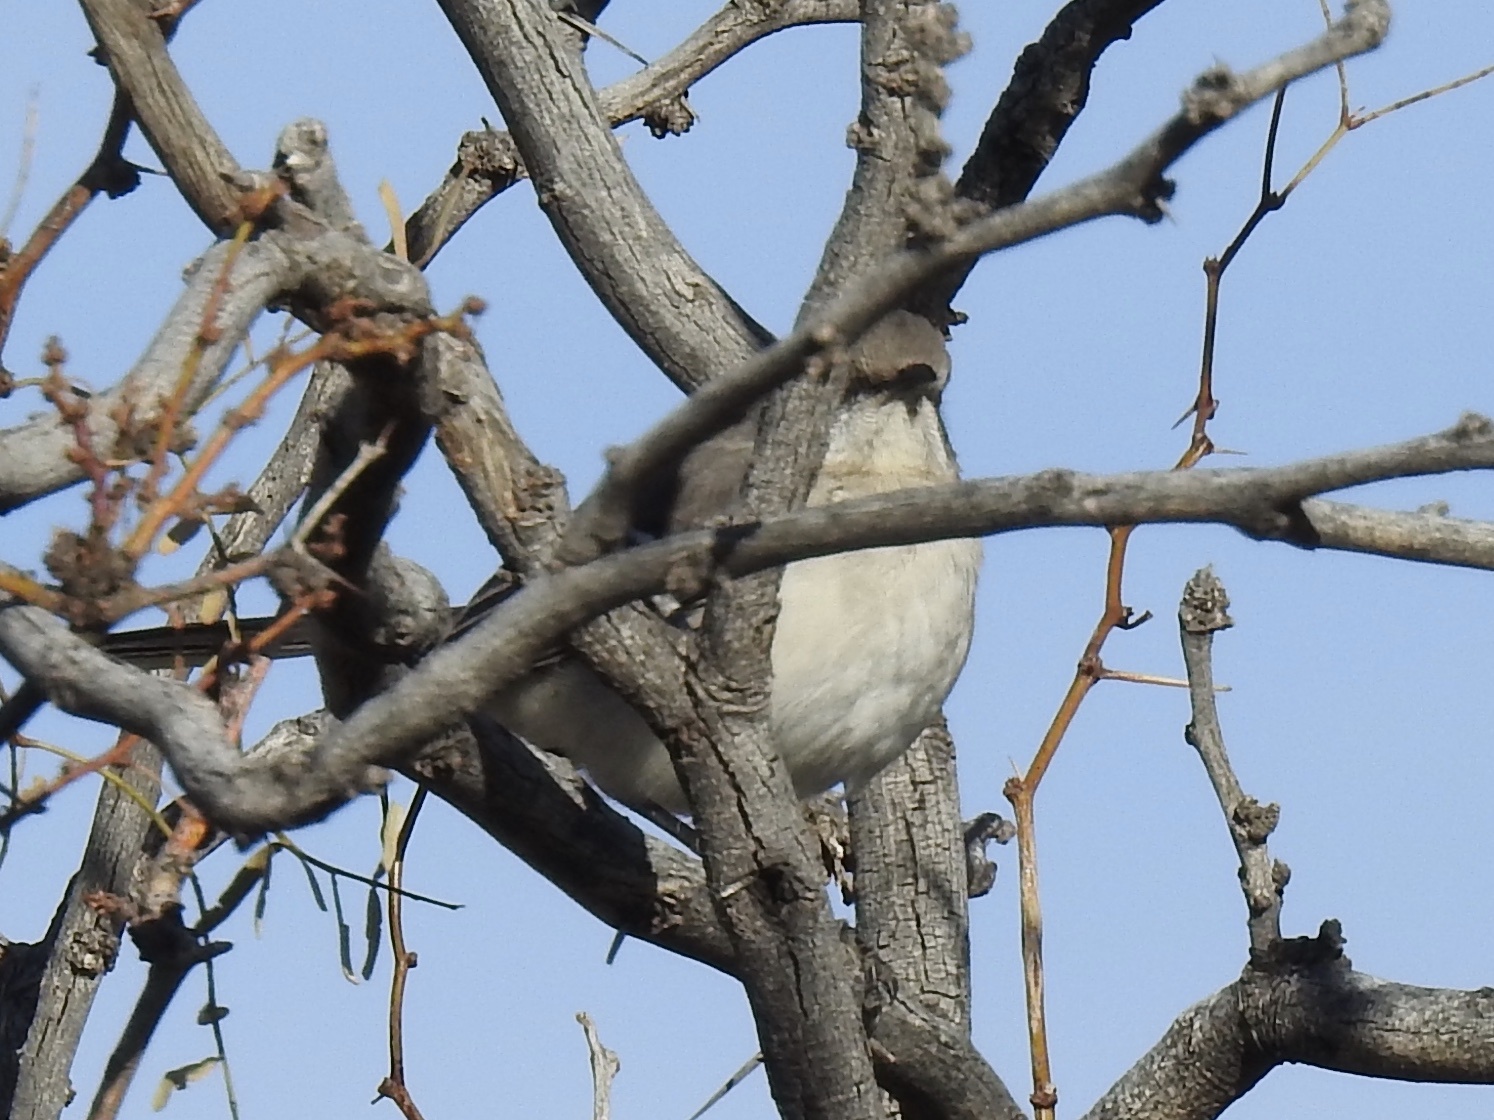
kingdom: Animalia
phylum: Chordata
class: Aves
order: Passeriformes
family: Mimidae
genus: Mimus
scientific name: Mimus polyglottos
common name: Northern mockingbird
